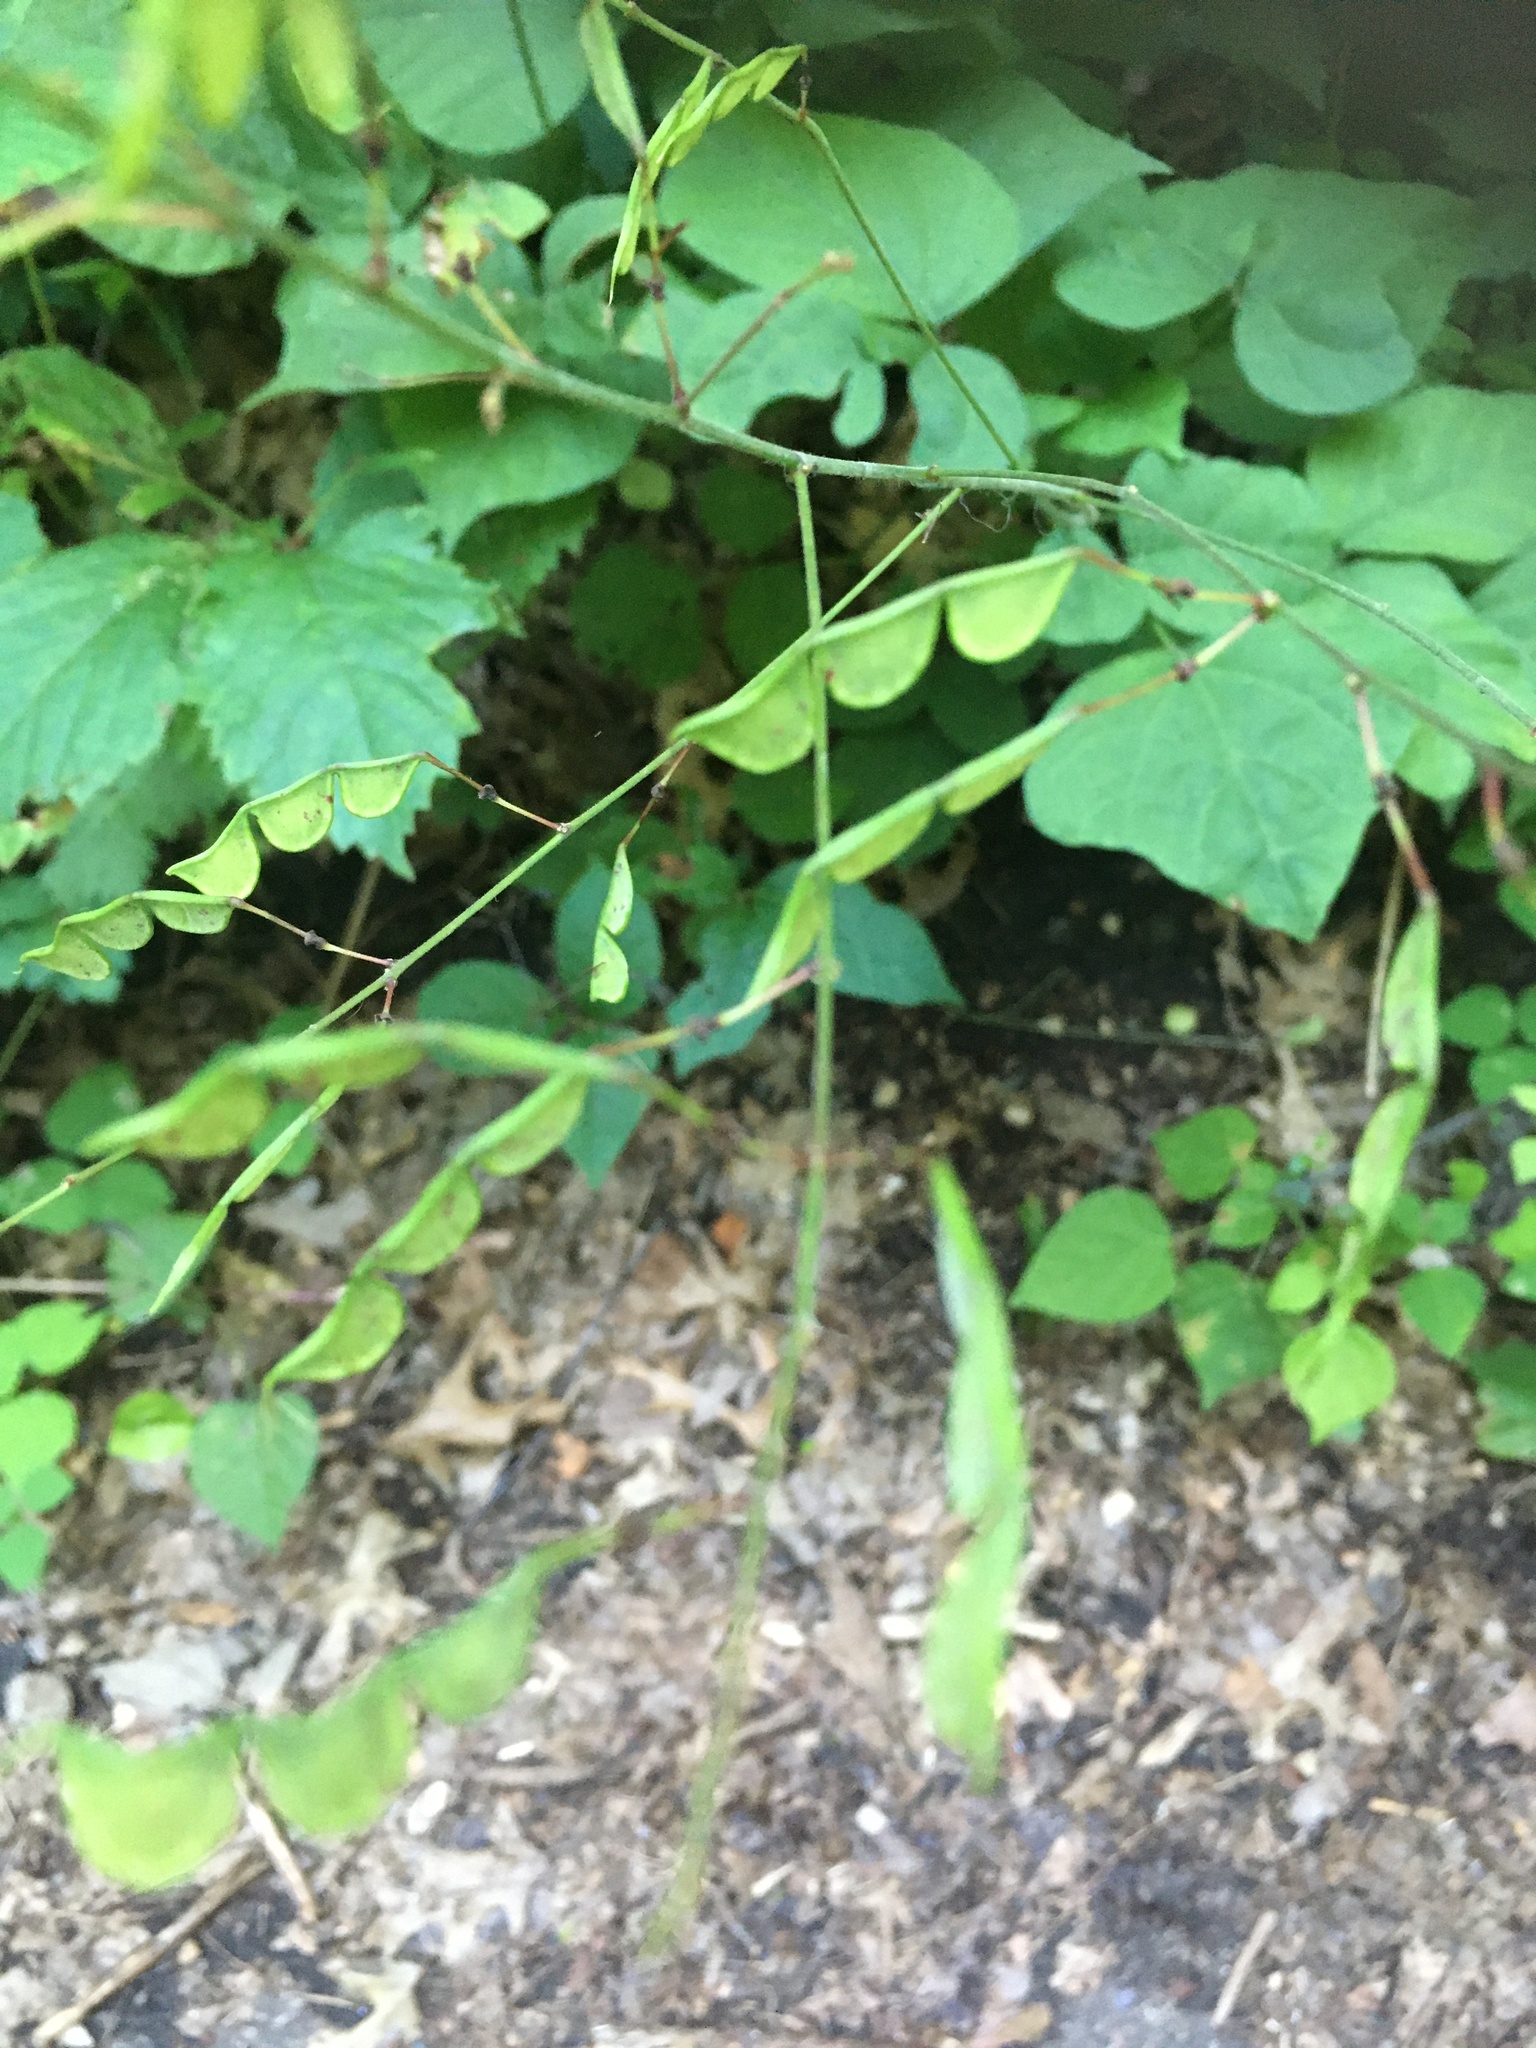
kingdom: Plantae
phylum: Tracheophyta
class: Magnoliopsida
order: Fabales
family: Fabaceae
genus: Hylodesmum
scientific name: Hylodesmum glutinosum
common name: Clustered-leaved tick-trefoil
